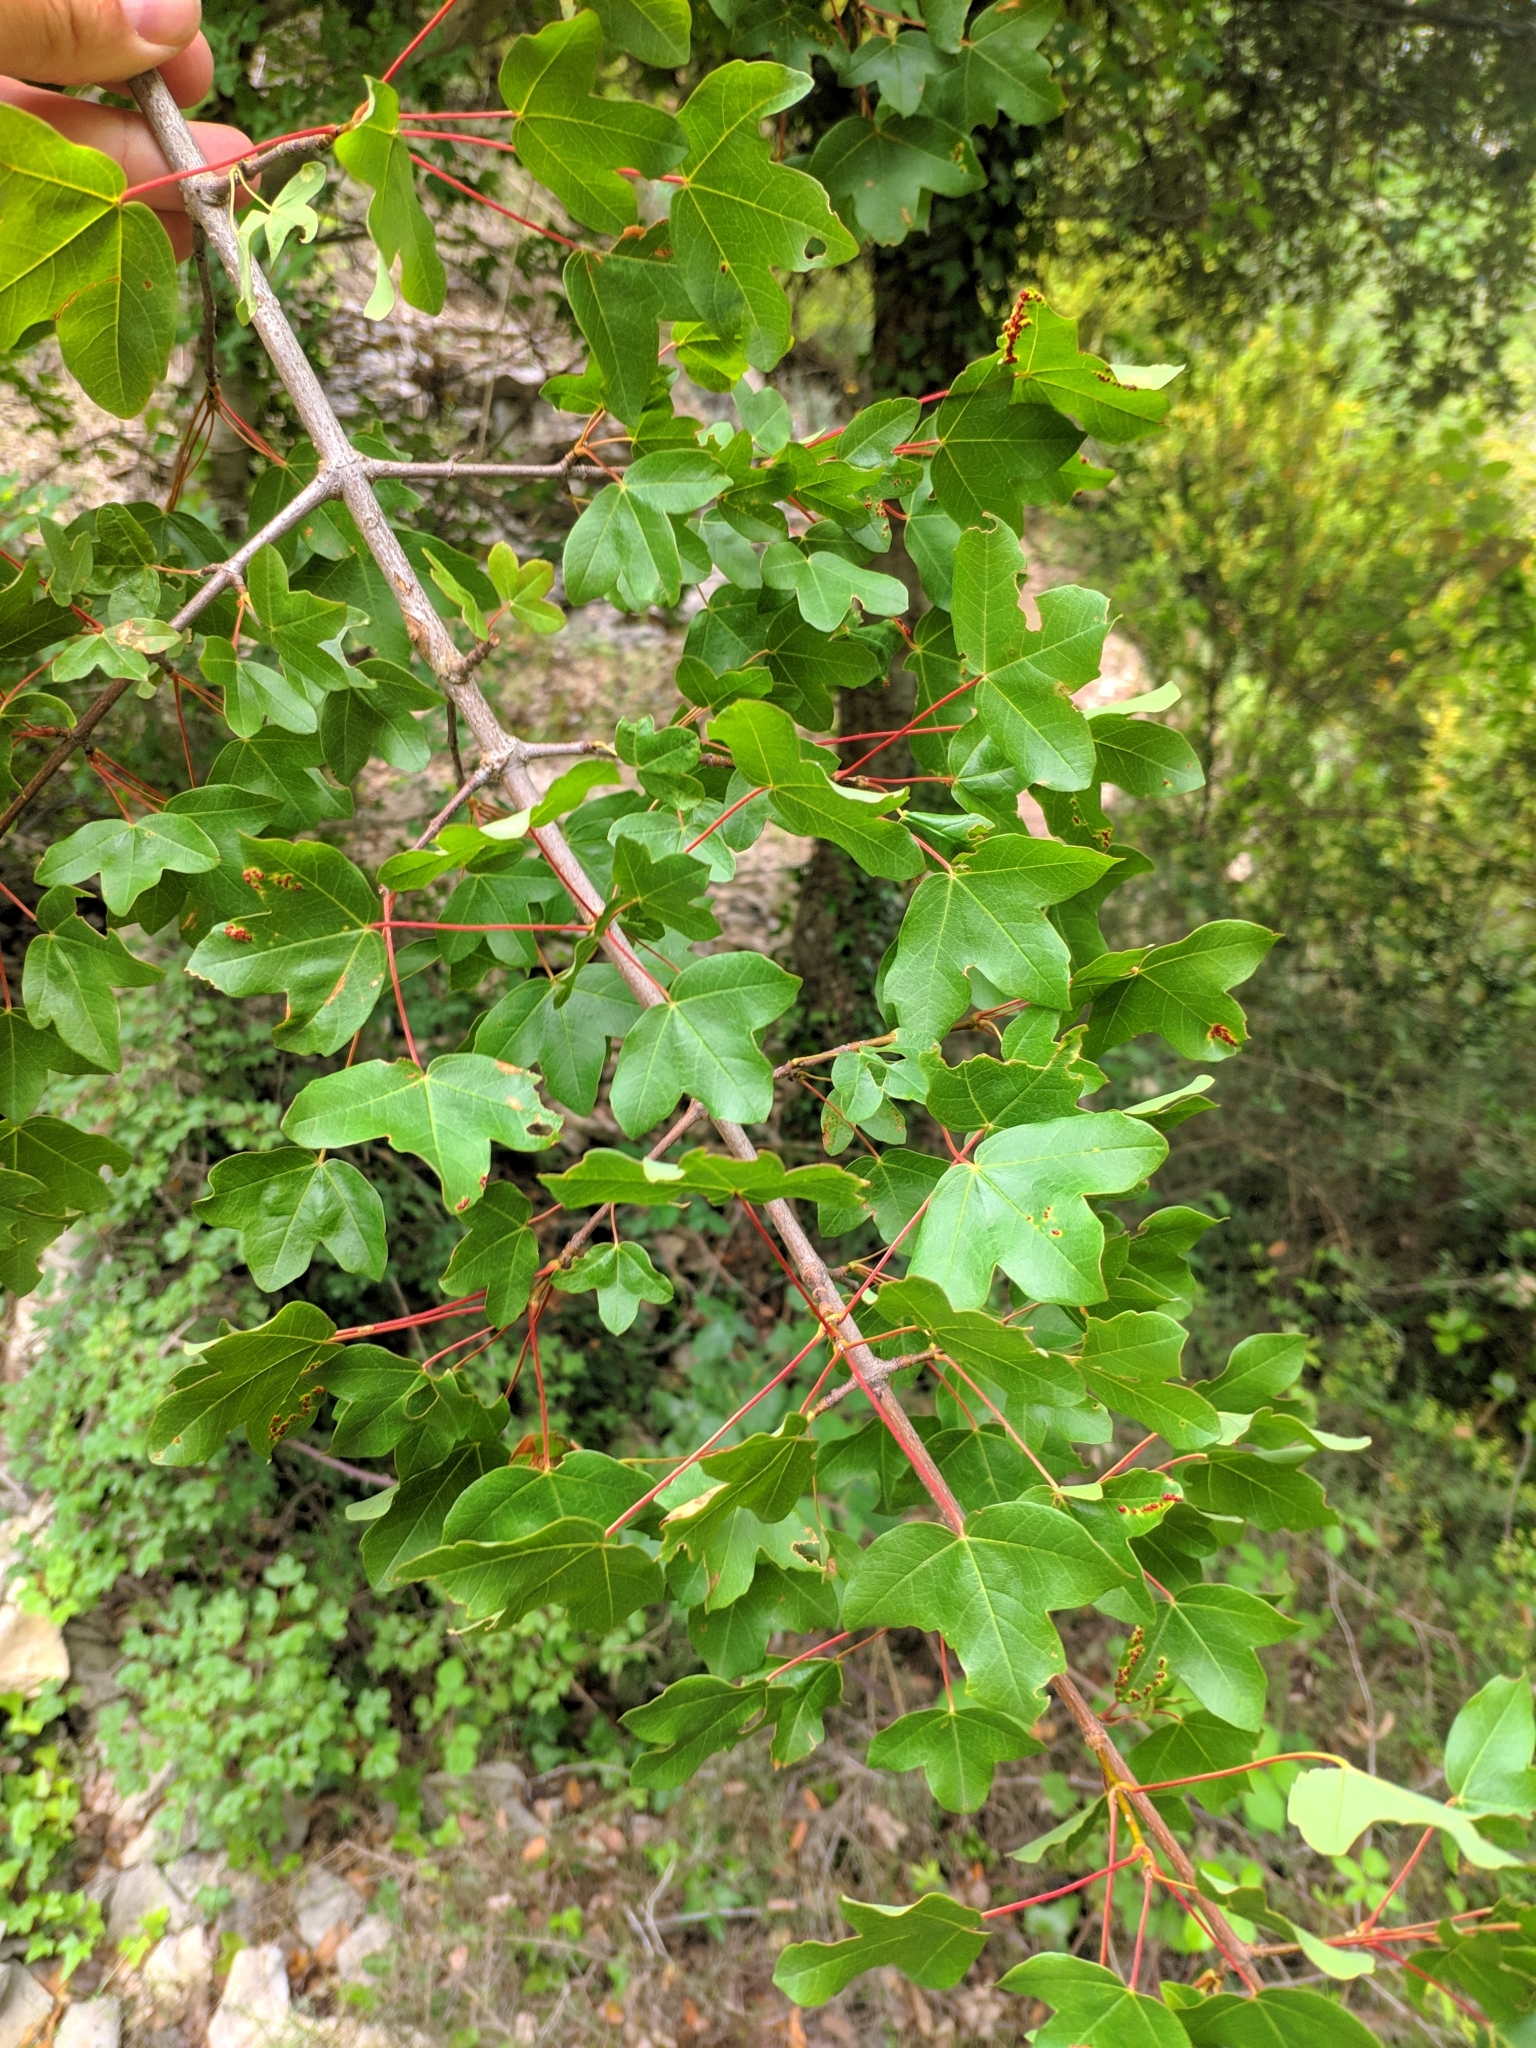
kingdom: Plantae
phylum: Tracheophyta
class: Magnoliopsida
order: Sapindales
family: Sapindaceae
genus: Acer
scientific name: Acer monspessulanum
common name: Montpellier maple
